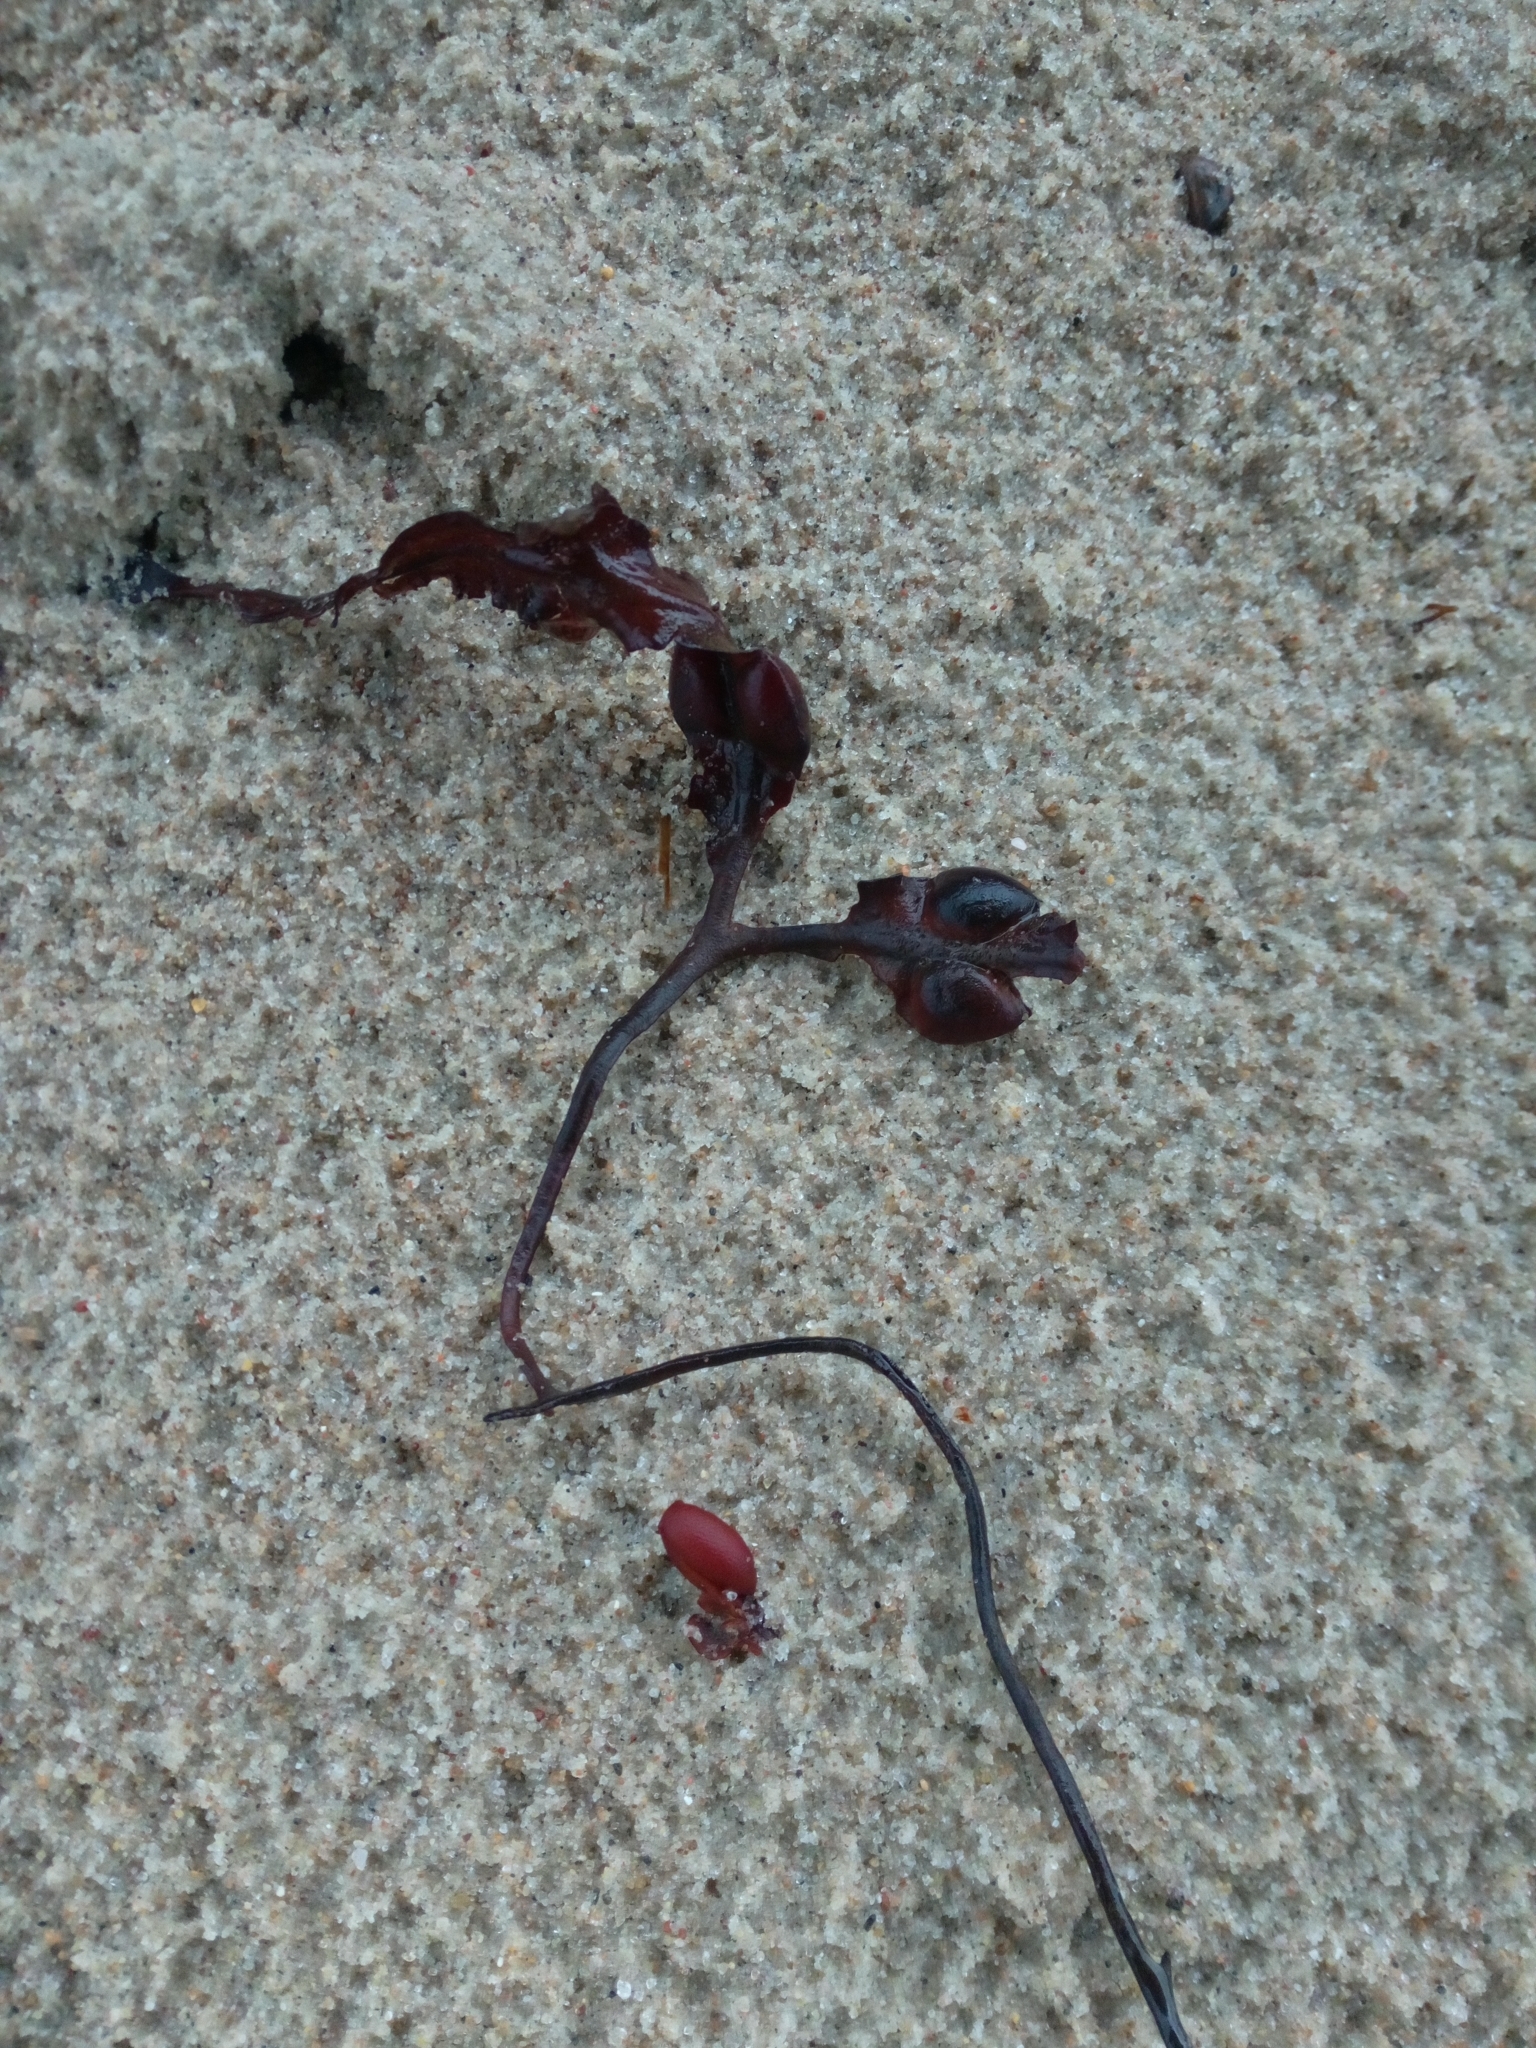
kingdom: Chromista
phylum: Ochrophyta
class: Phaeophyceae
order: Fucales
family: Fucaceae
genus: Fucus
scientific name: Fucus vesiculosus
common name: Bladder wrack
